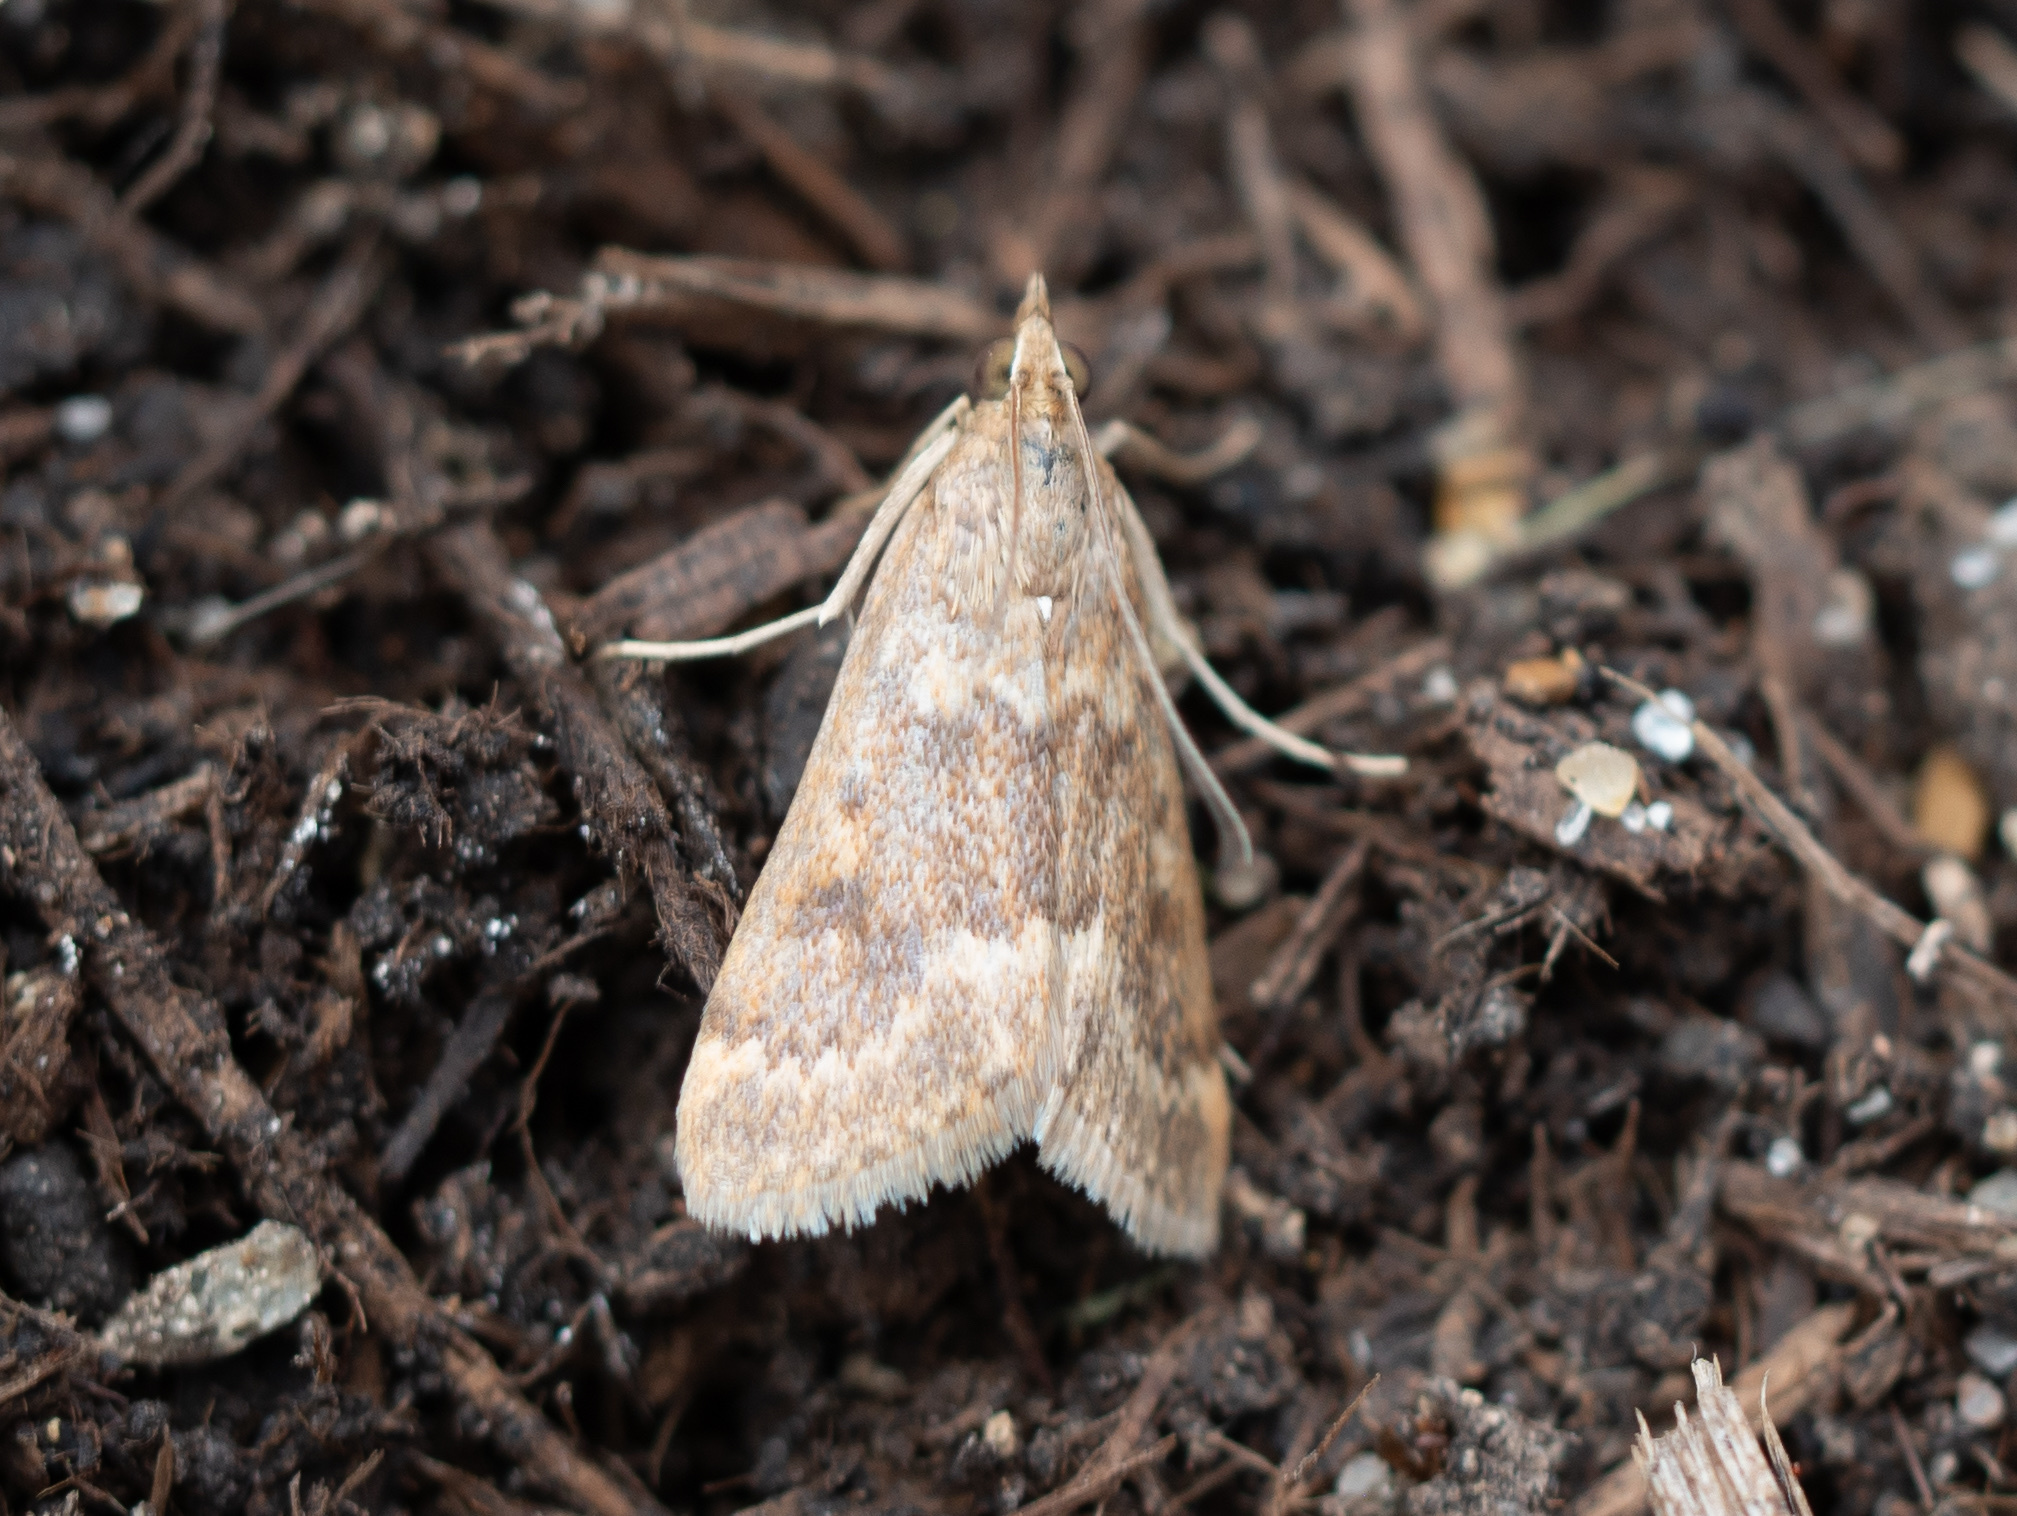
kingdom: Animalia
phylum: Arthropoda
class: Insecta
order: Lepidoptera
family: Crambidae
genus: Achyra
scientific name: Achyra rantalis
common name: Garden webworm
